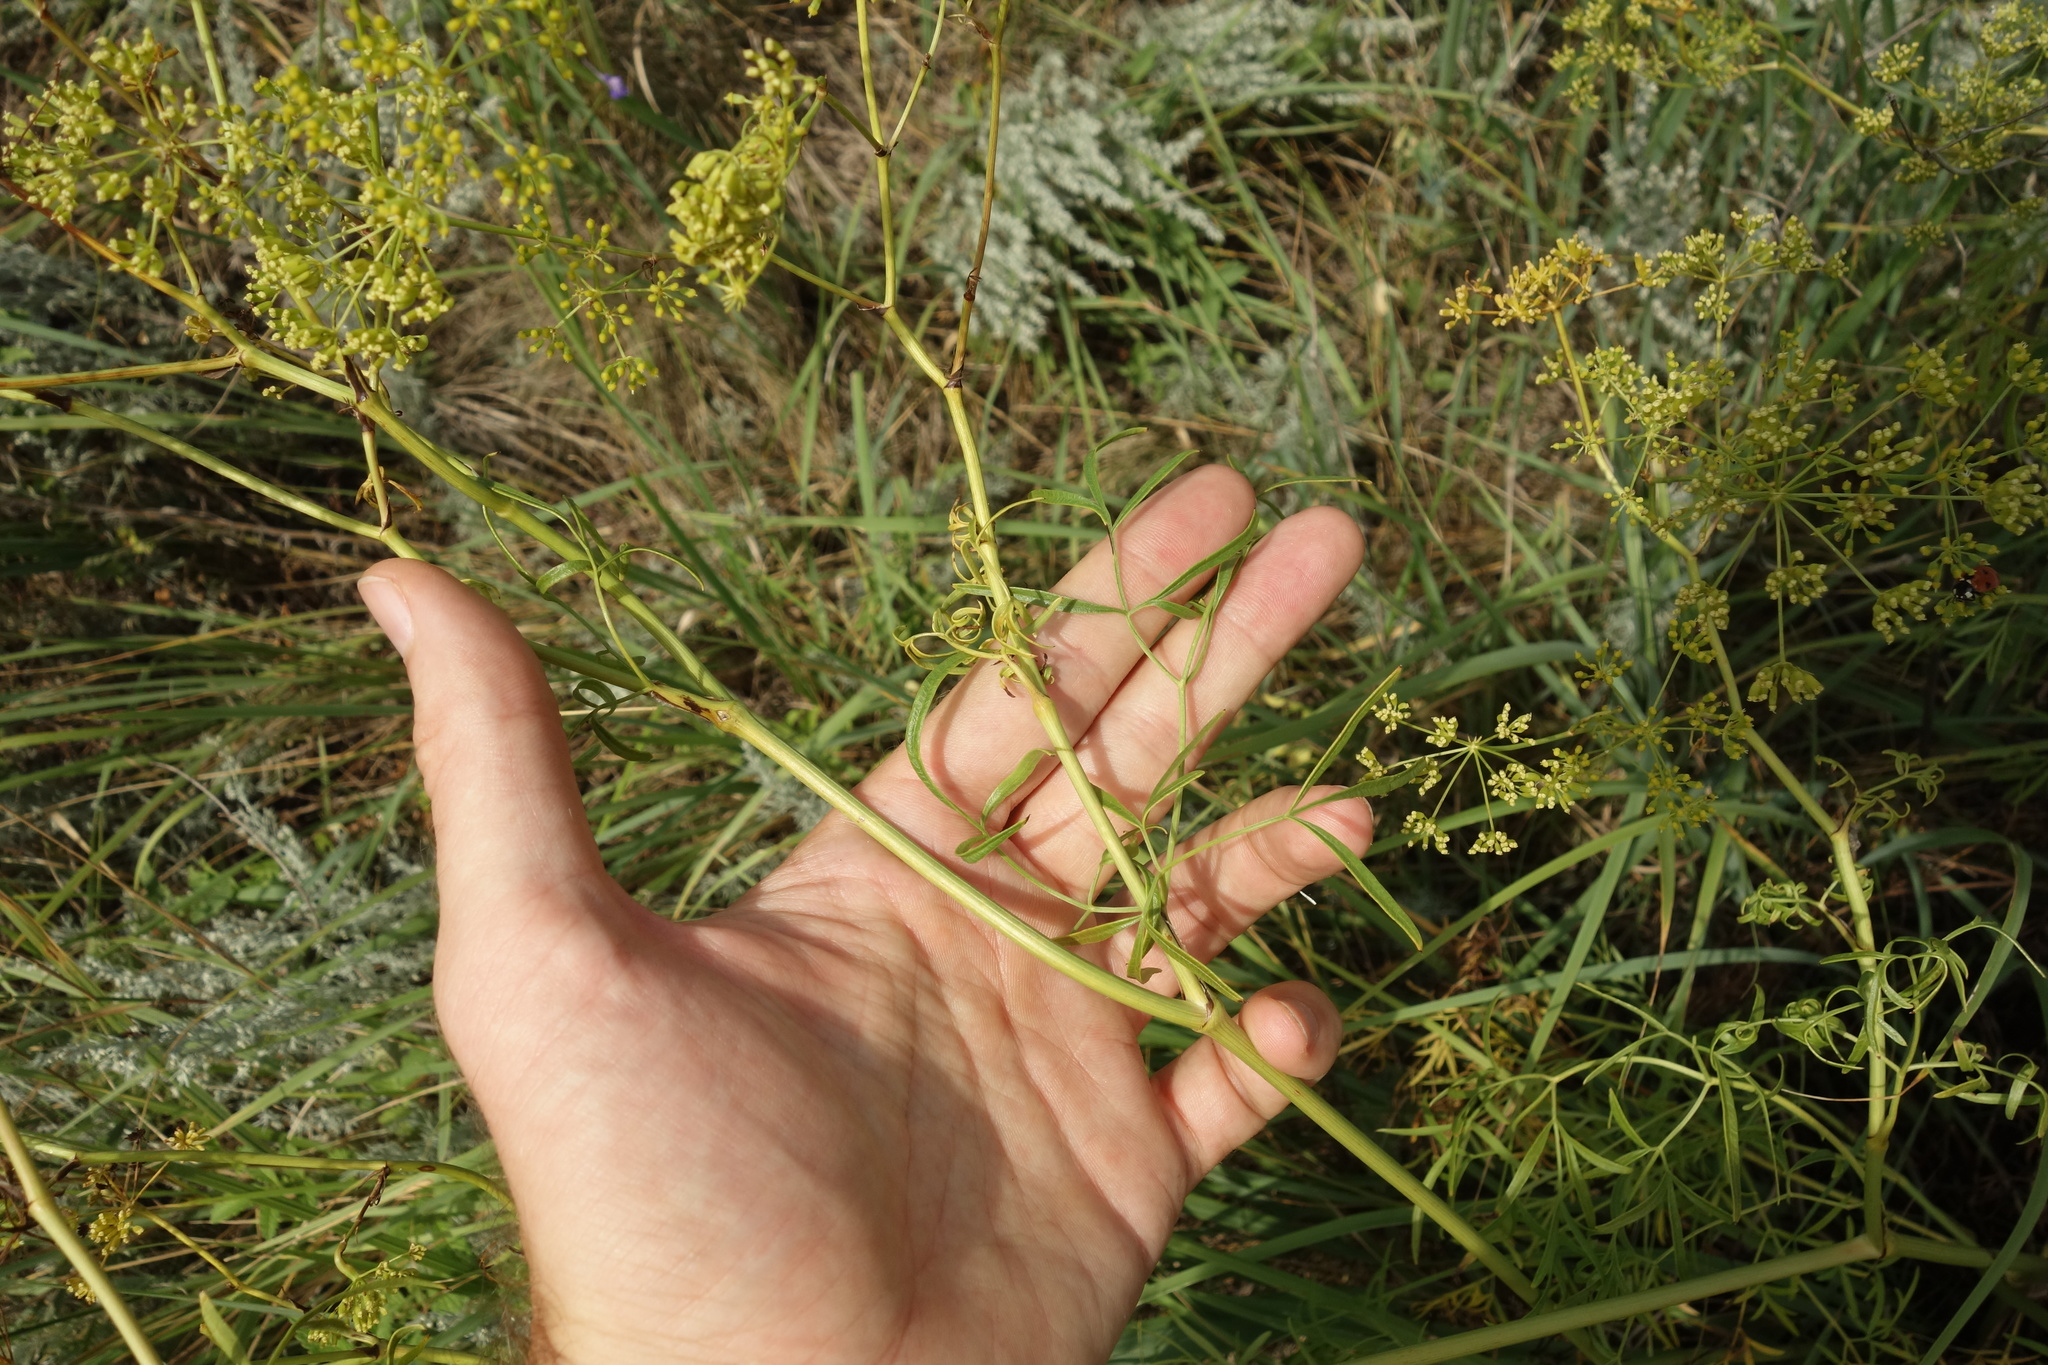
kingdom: Plantae
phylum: Tracheophyta
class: Magnoliopsida
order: Apiales
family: Apiaceae
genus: Silaum
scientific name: Silaum silaus
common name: Pepper-saxifrage
